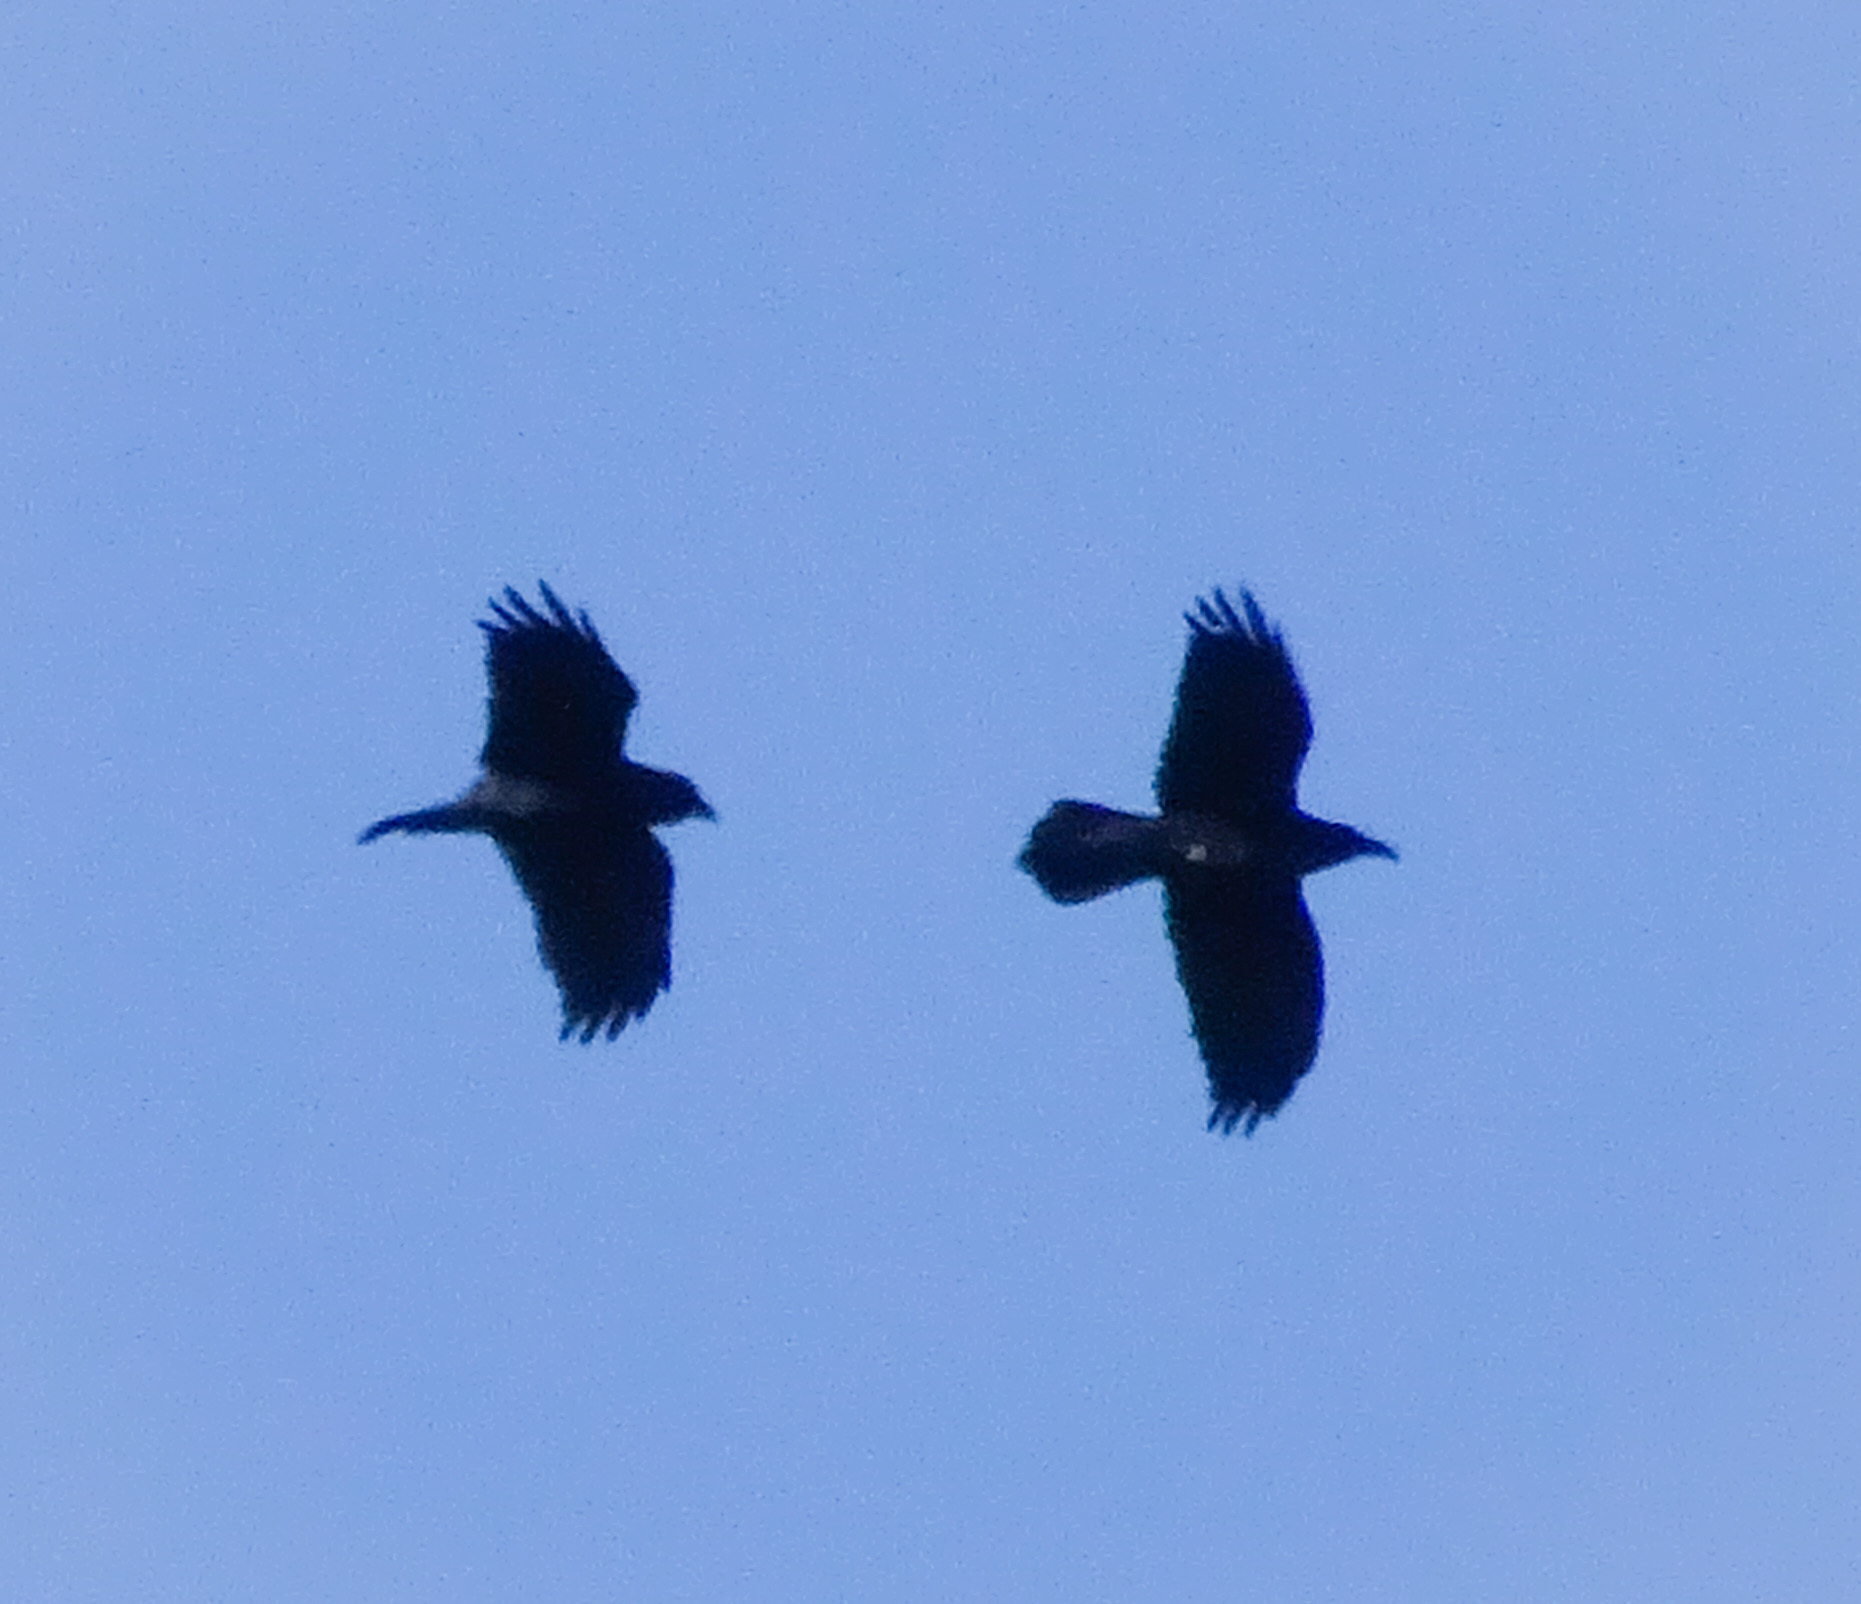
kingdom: Animalia
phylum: Chordata
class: Aves
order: Passeriformes
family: Corvidae
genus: Corvus
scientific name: Corvus corax
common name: Common raven
